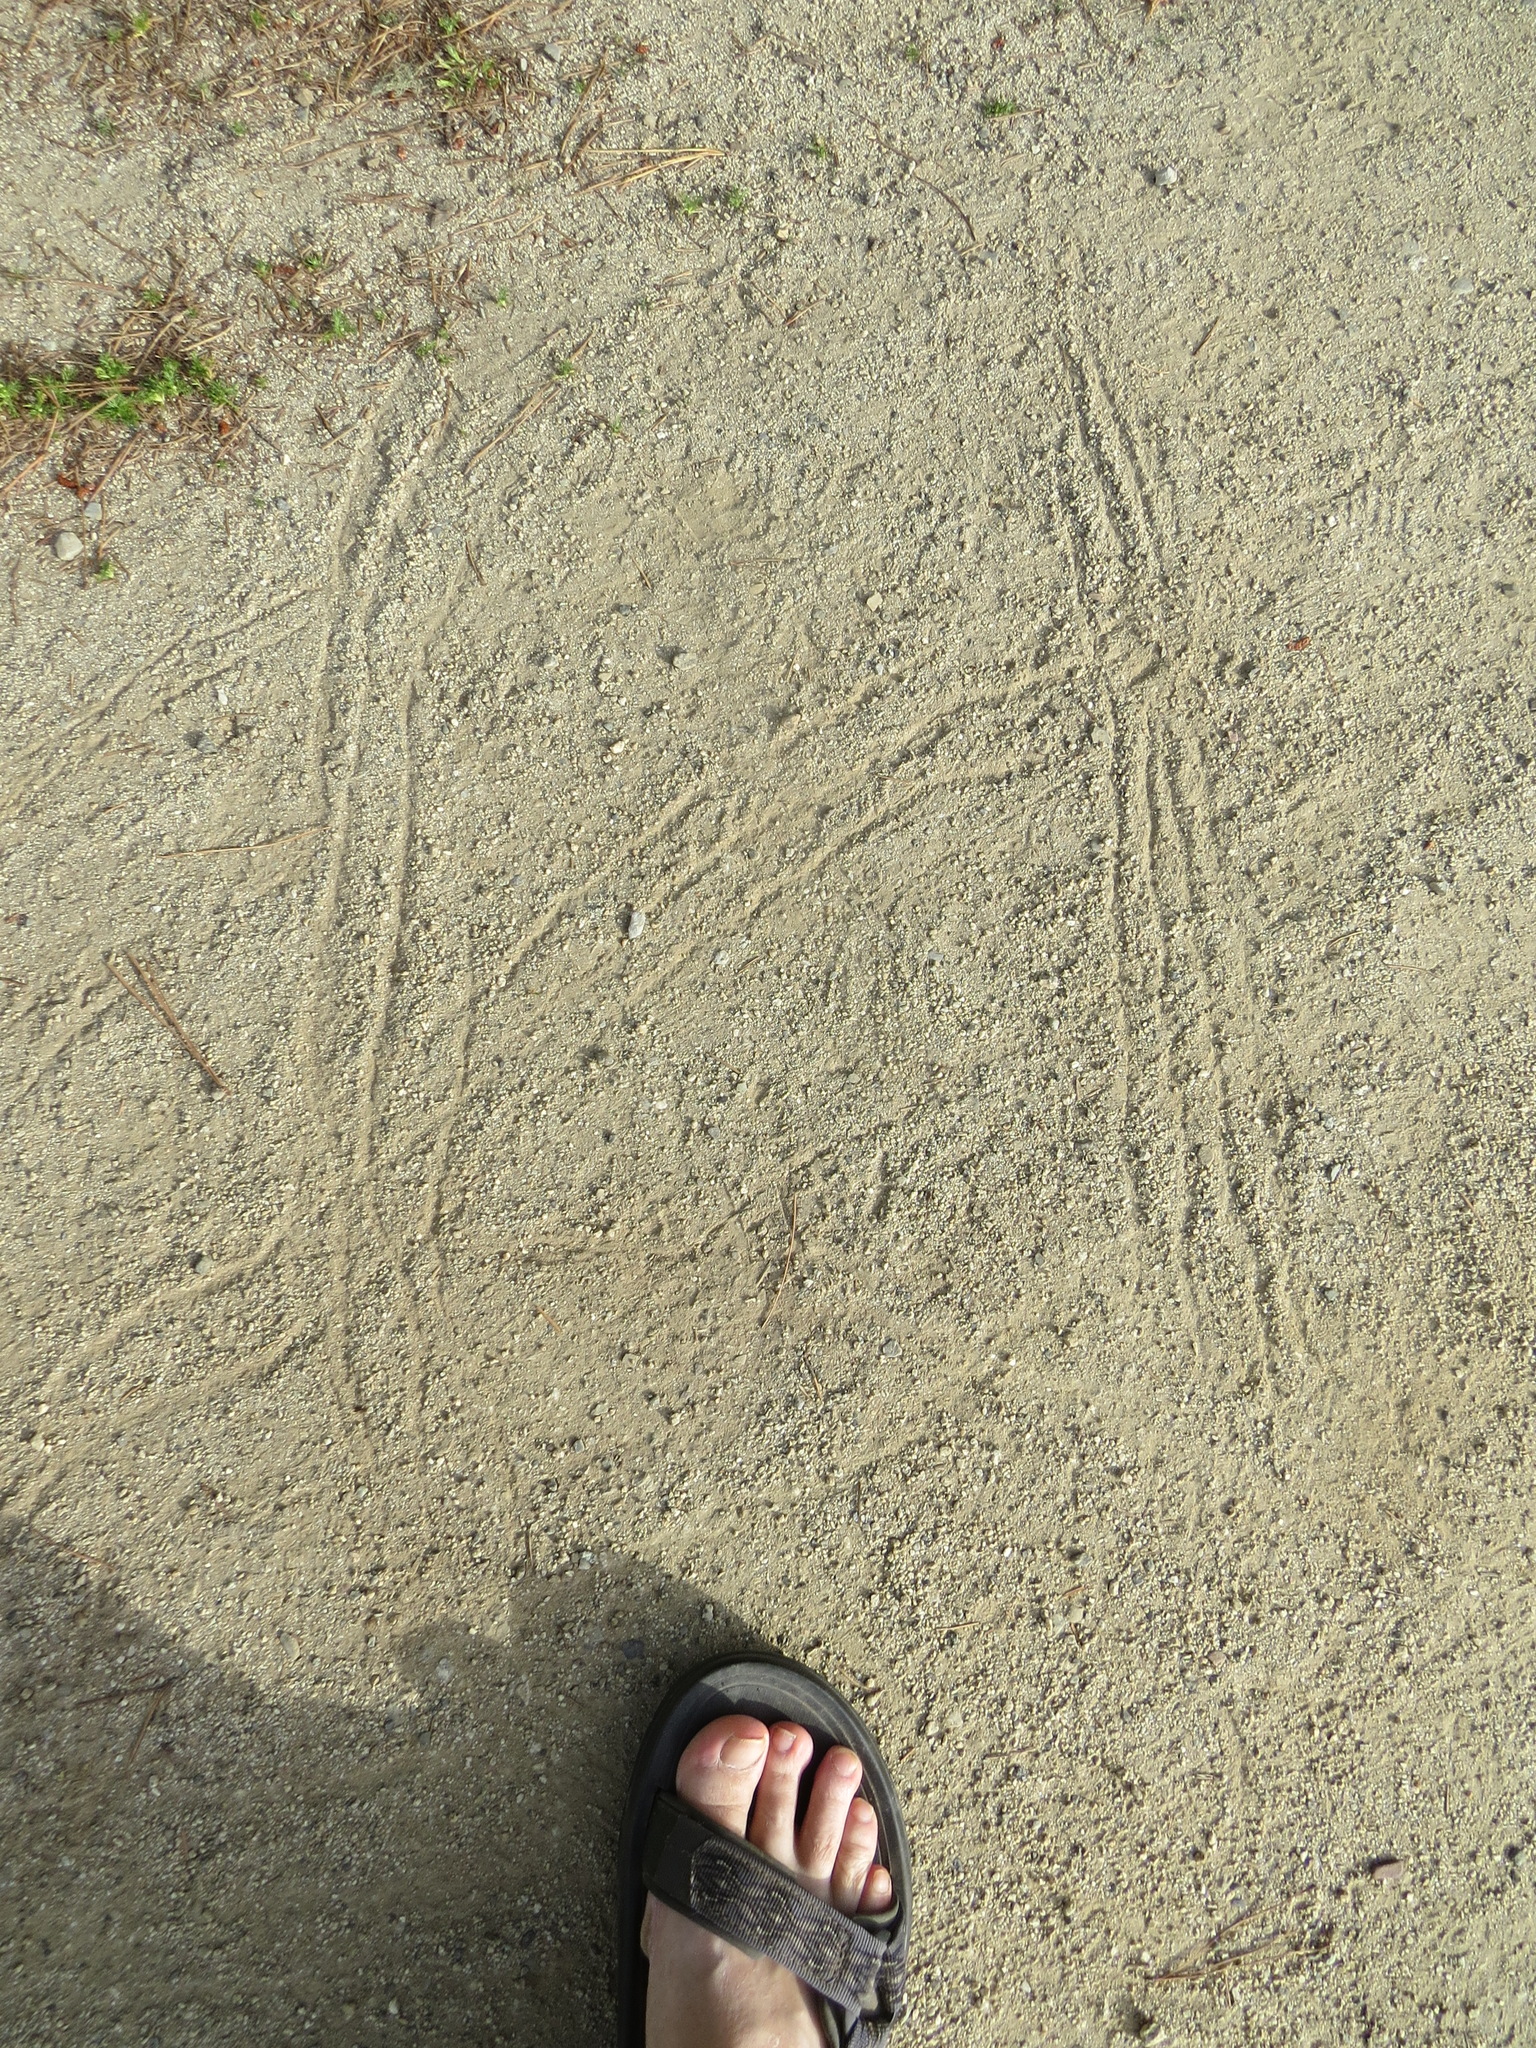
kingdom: Animalia
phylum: Chordata
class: Aves
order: Galliformes
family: Phasianidae
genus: Meleagris
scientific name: Meleagris gallopavo
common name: Wild turkey
